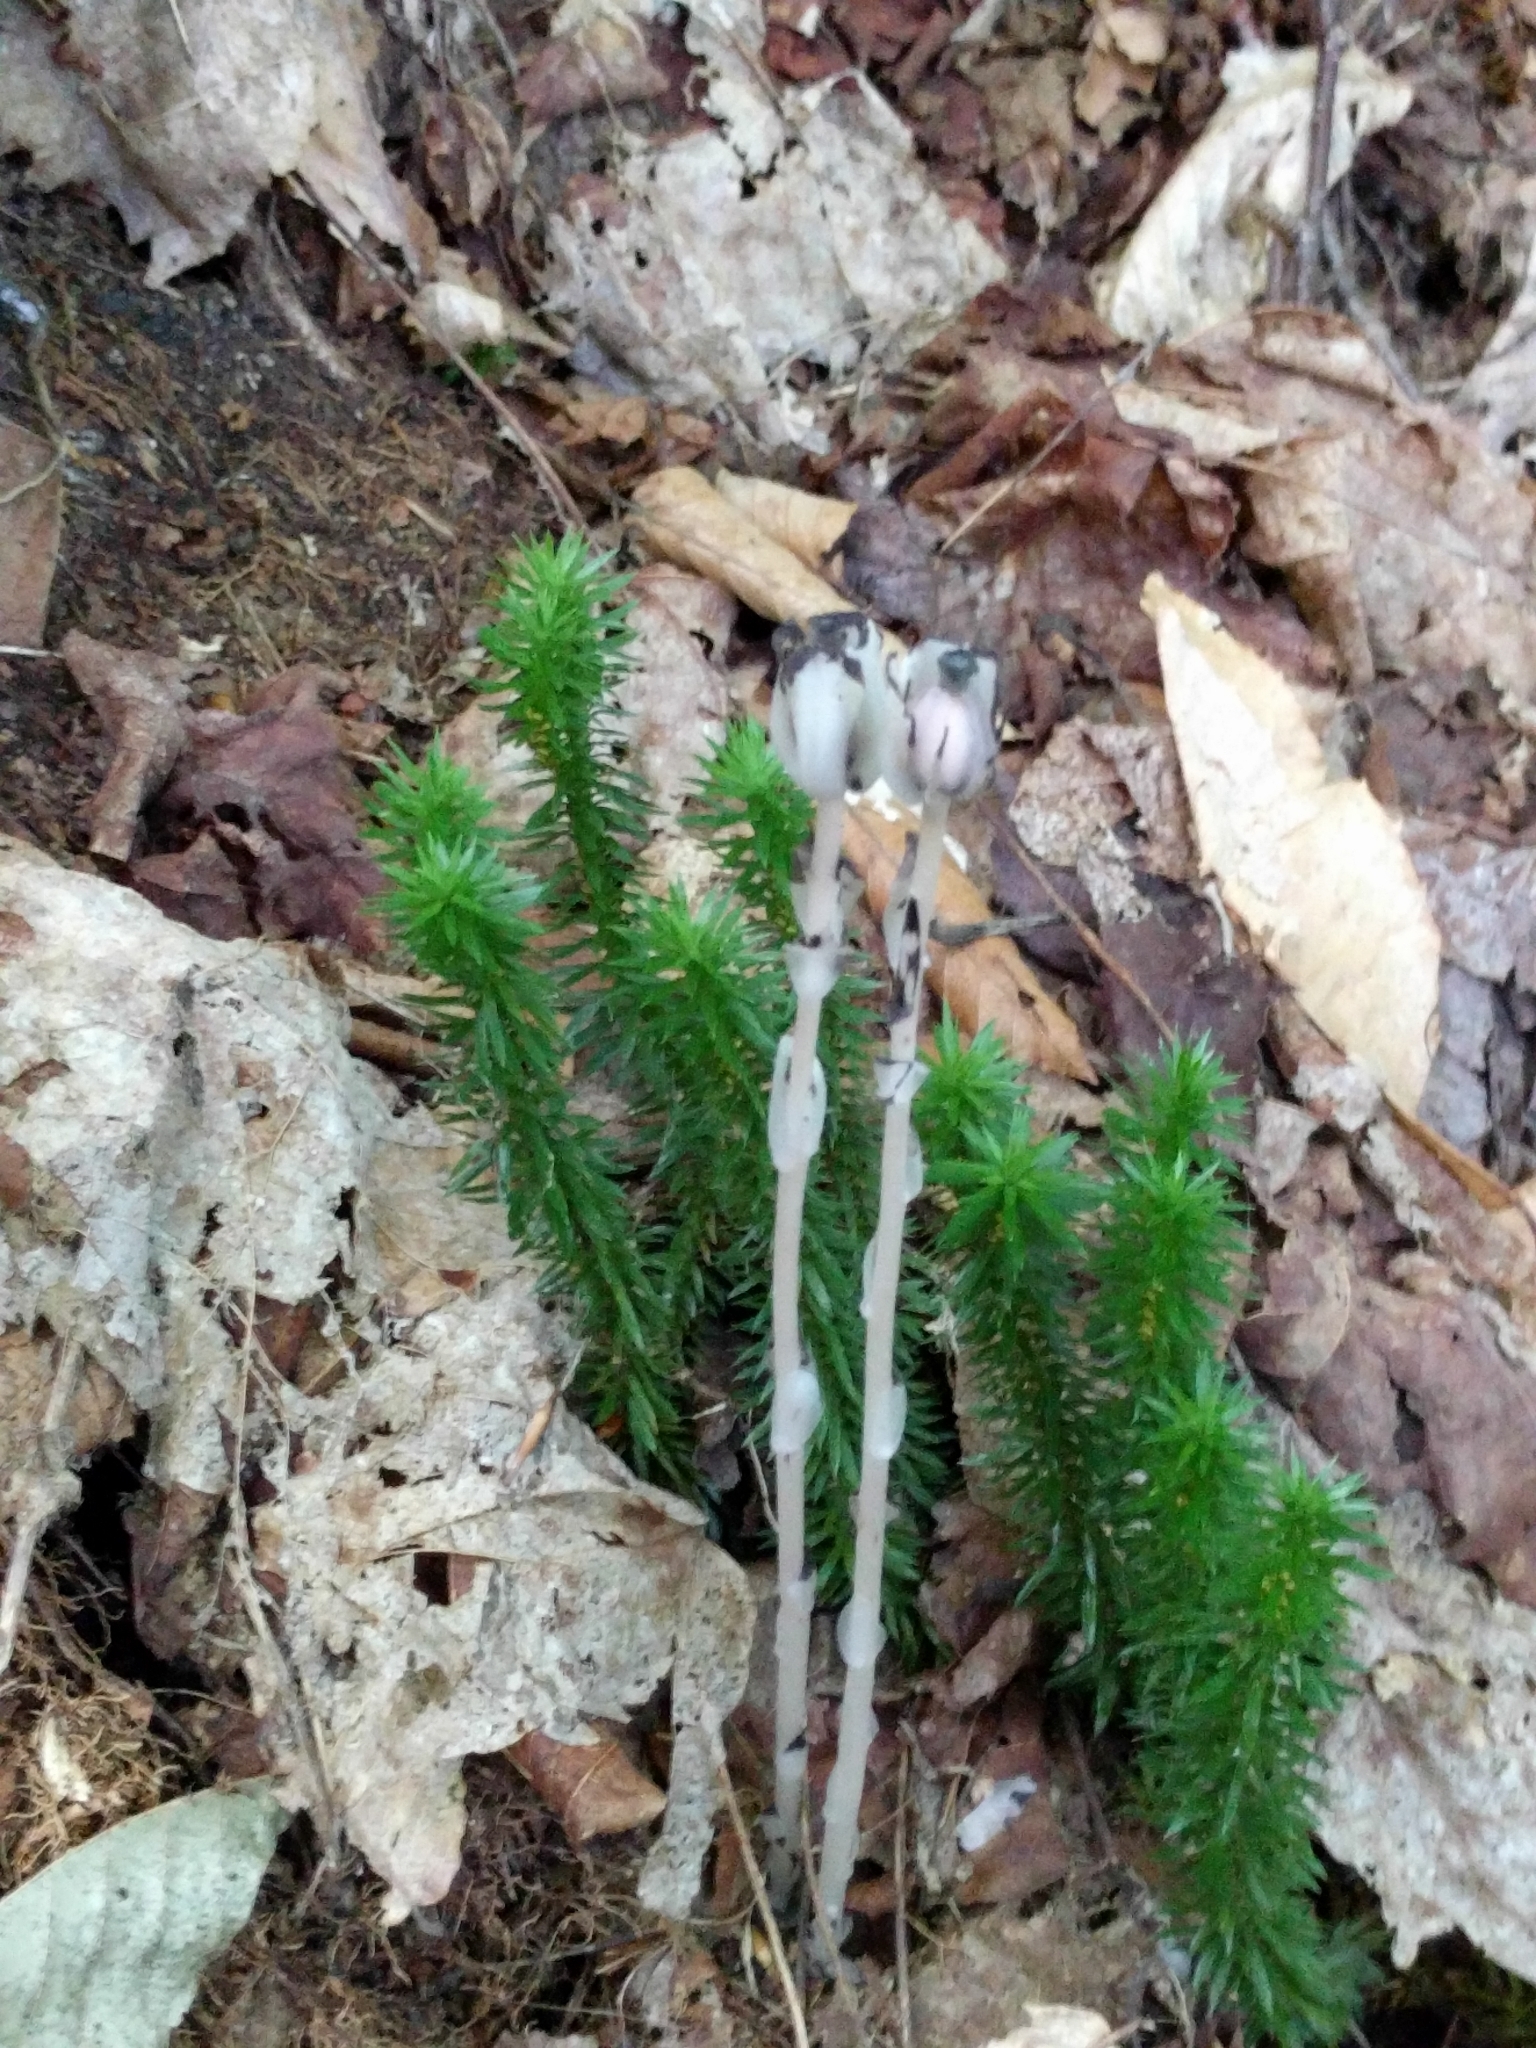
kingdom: Plantae
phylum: Tracheophyta
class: Magnoliopsida
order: Ericales
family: Ericaceae
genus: Monotropa
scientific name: Monotropa uniflora
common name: Convulsion root
